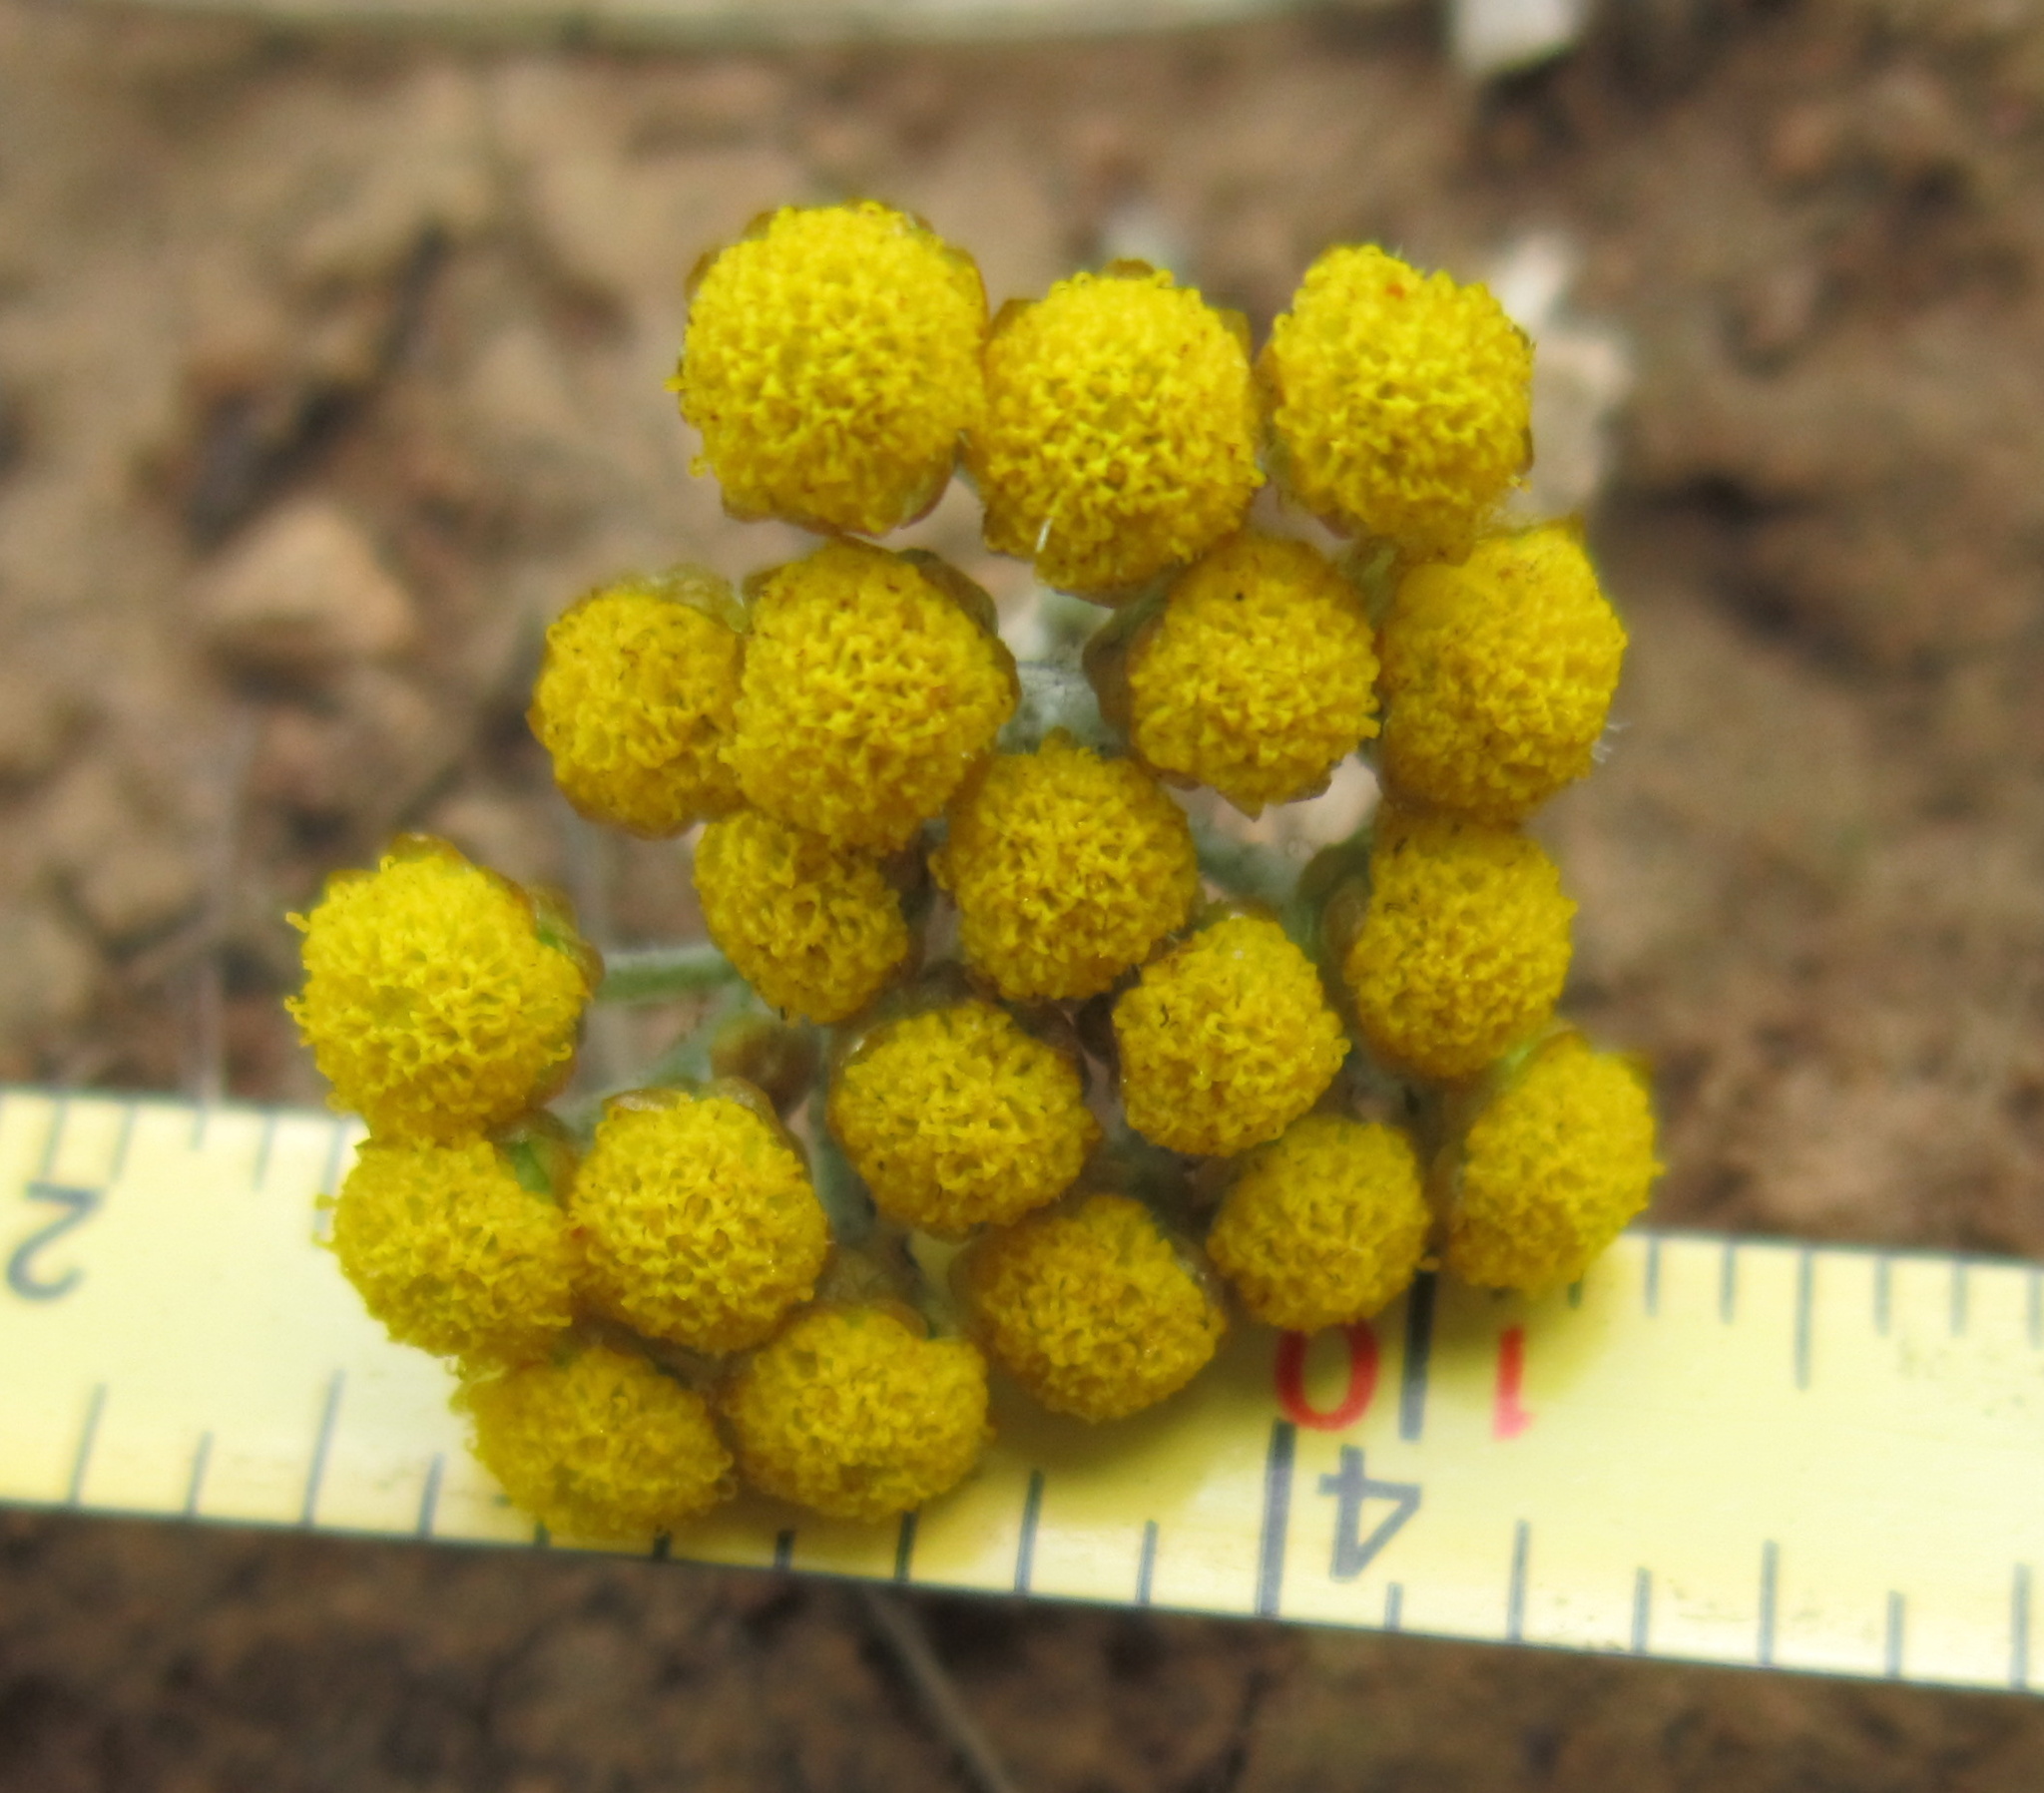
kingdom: Plantae
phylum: Tracheophyta
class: Magnoliopsida
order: Asterales
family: Asteraceae
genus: Helichrysum
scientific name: Helichrysum aureonitens
